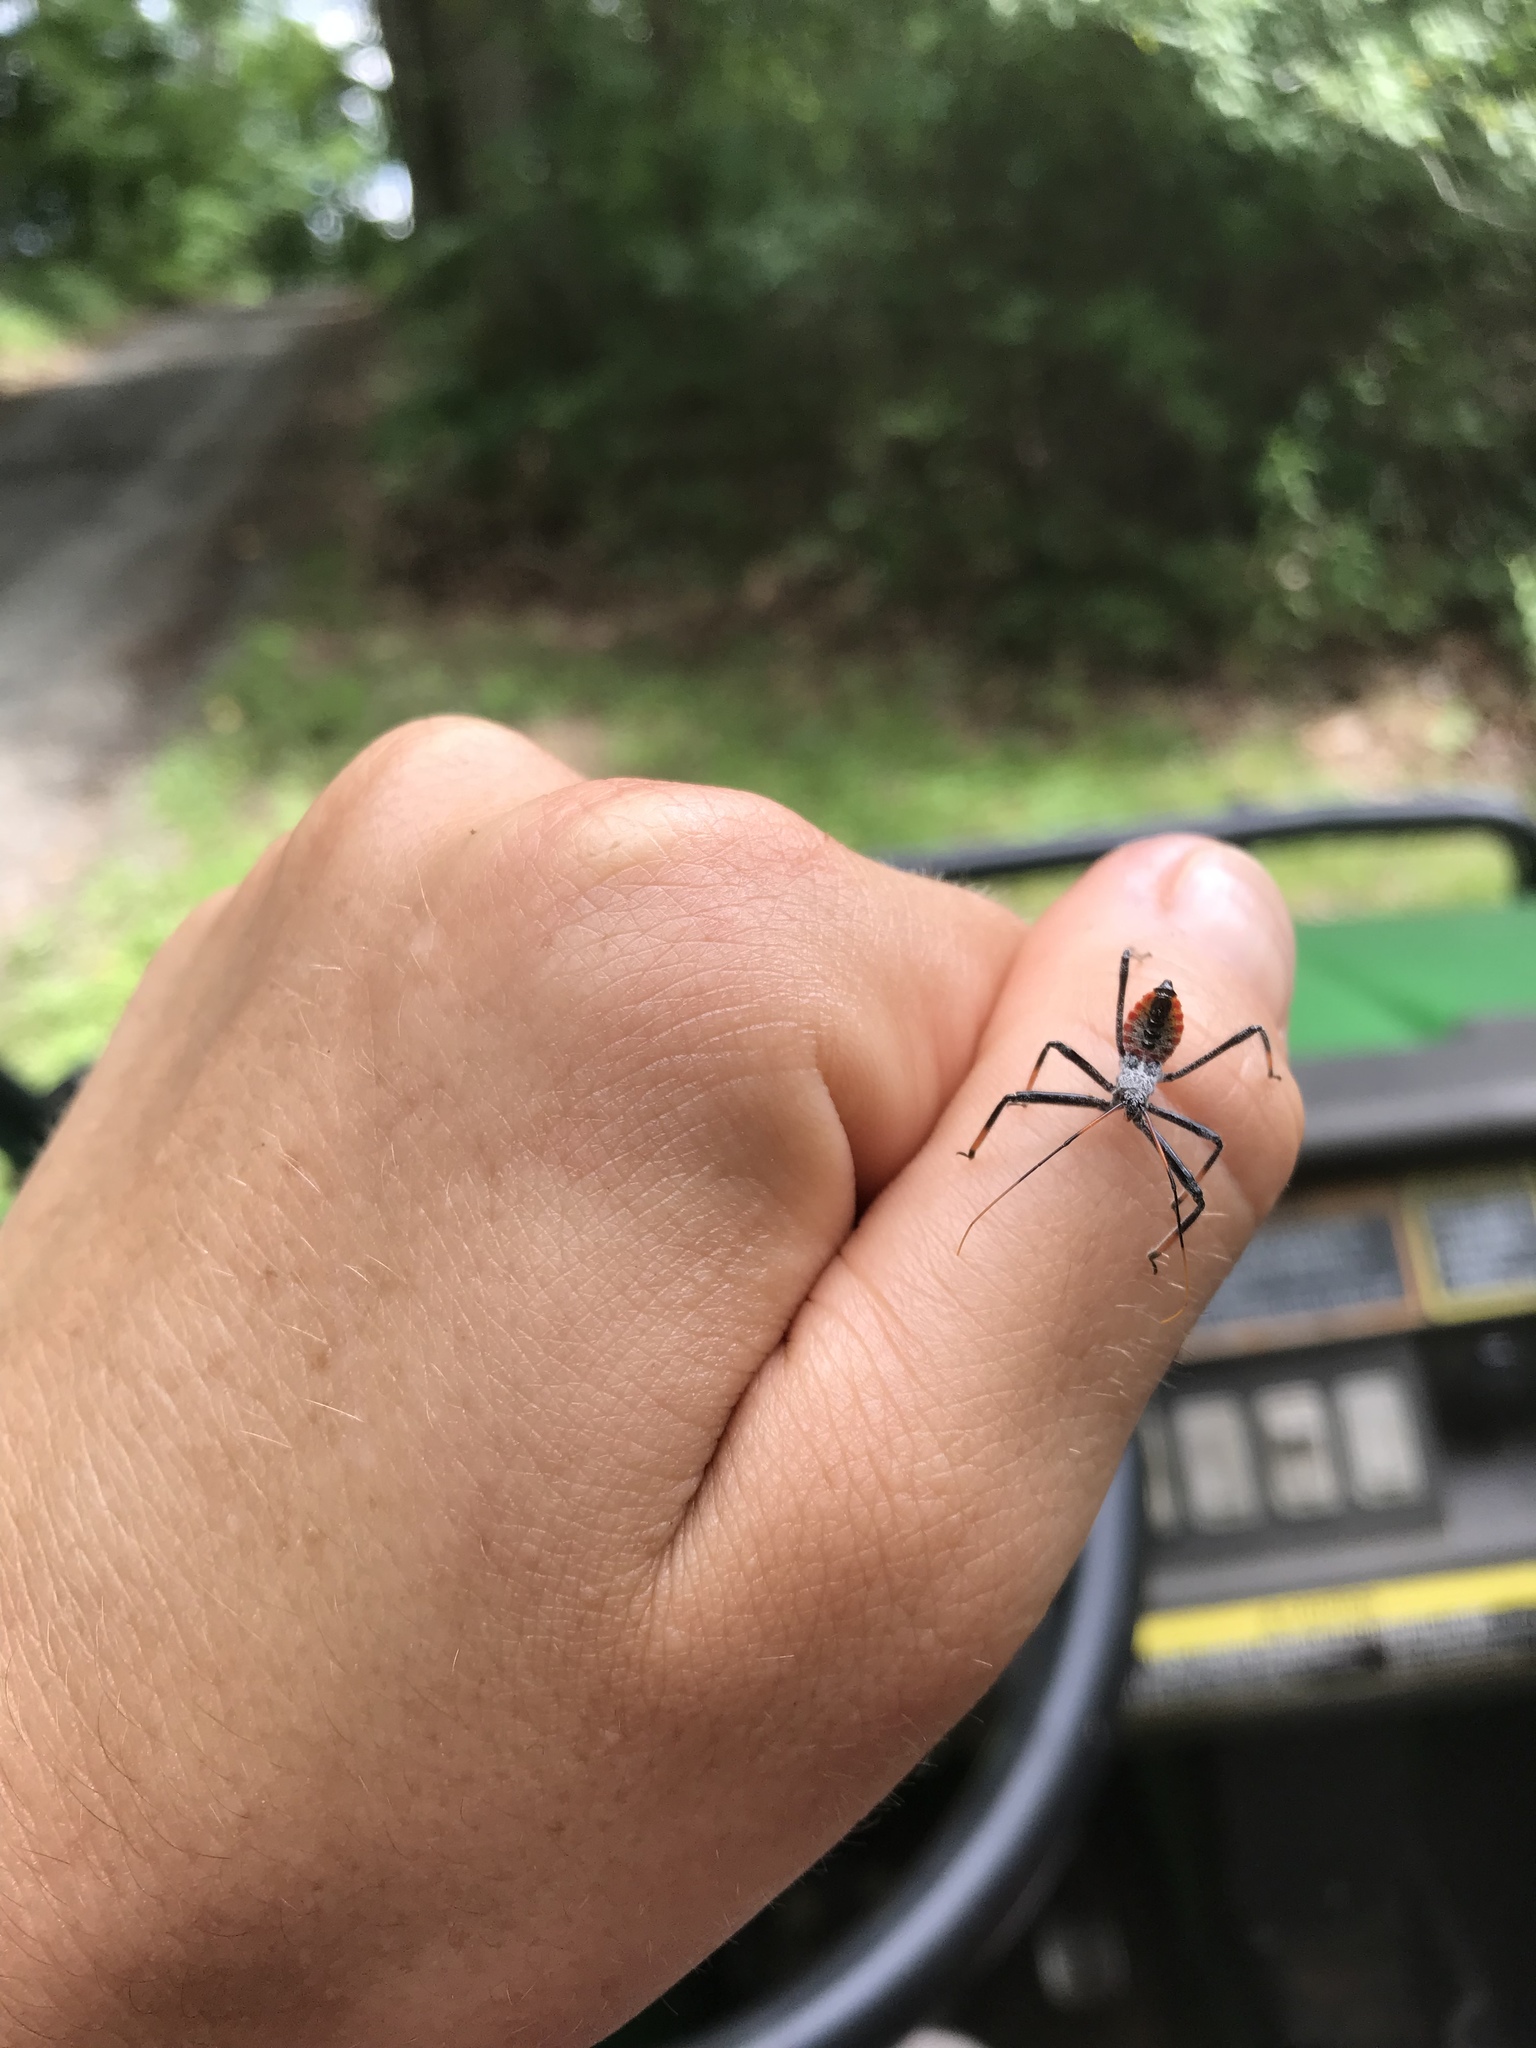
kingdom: Animalia
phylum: Arthropoda
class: Insecta
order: Hemiptera
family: Reduviidae
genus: Arilus
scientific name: Arilus cristatus
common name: North american wheel bug
